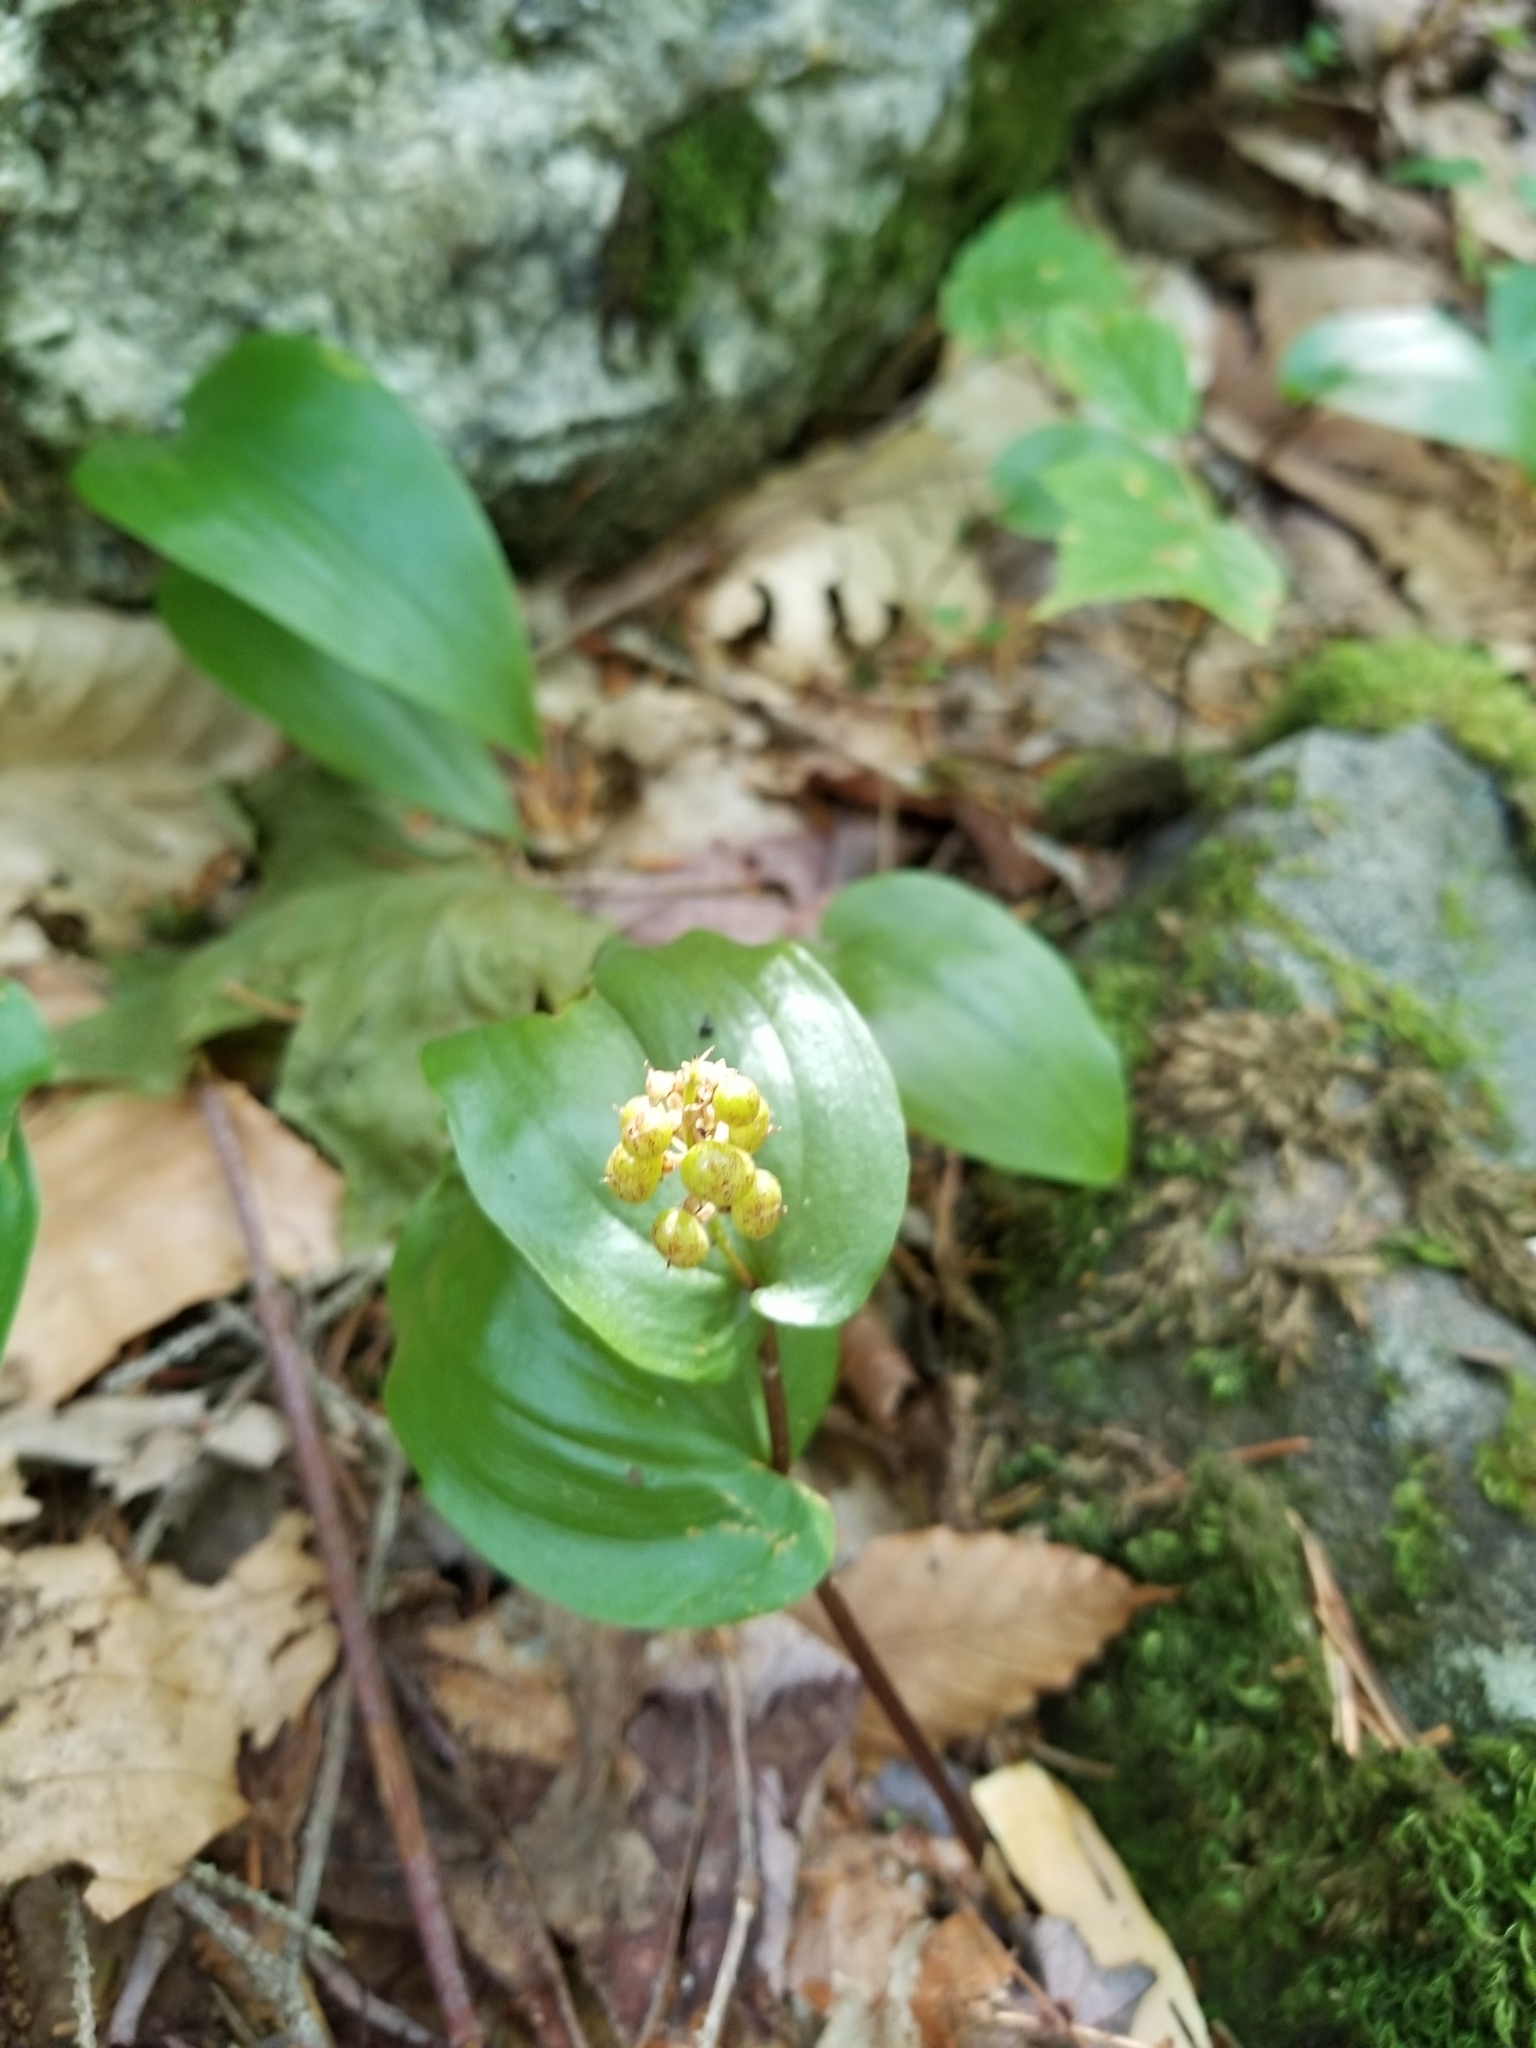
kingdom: Plantae
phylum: Tracheophyta
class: Liliopsida
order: Asparagales
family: Asparagaceae
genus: Maianthemum
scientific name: Maianthemum canadense
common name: False lily-of-the-valley
